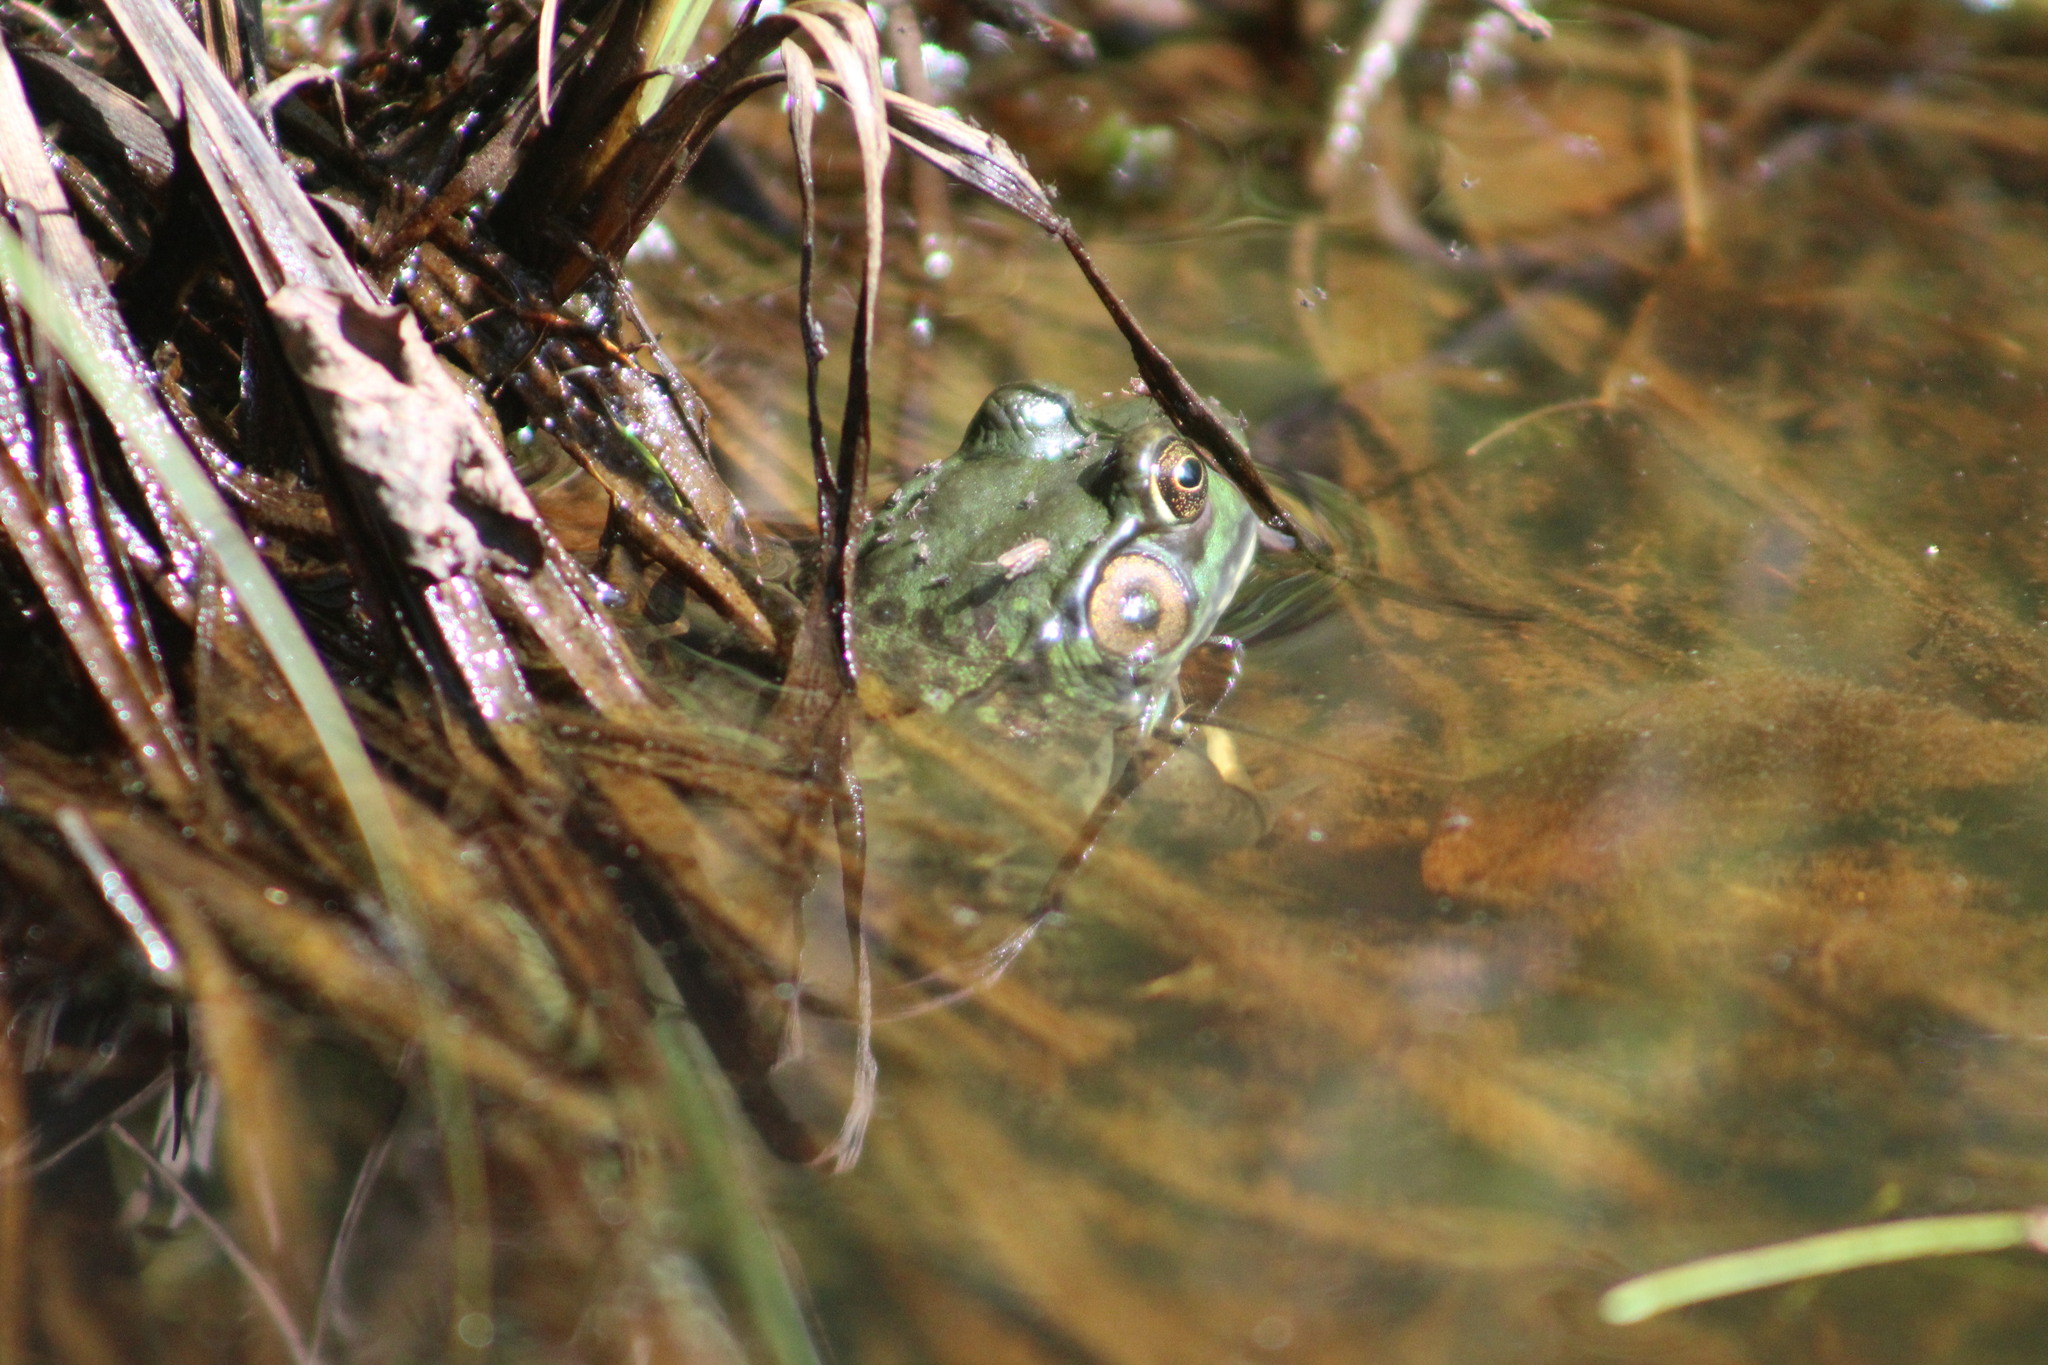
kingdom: Animalia
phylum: Chordata
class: Amphibia
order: Anura
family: Ranidae
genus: Lithobates
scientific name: Lithobates clamitans
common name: Green frog
